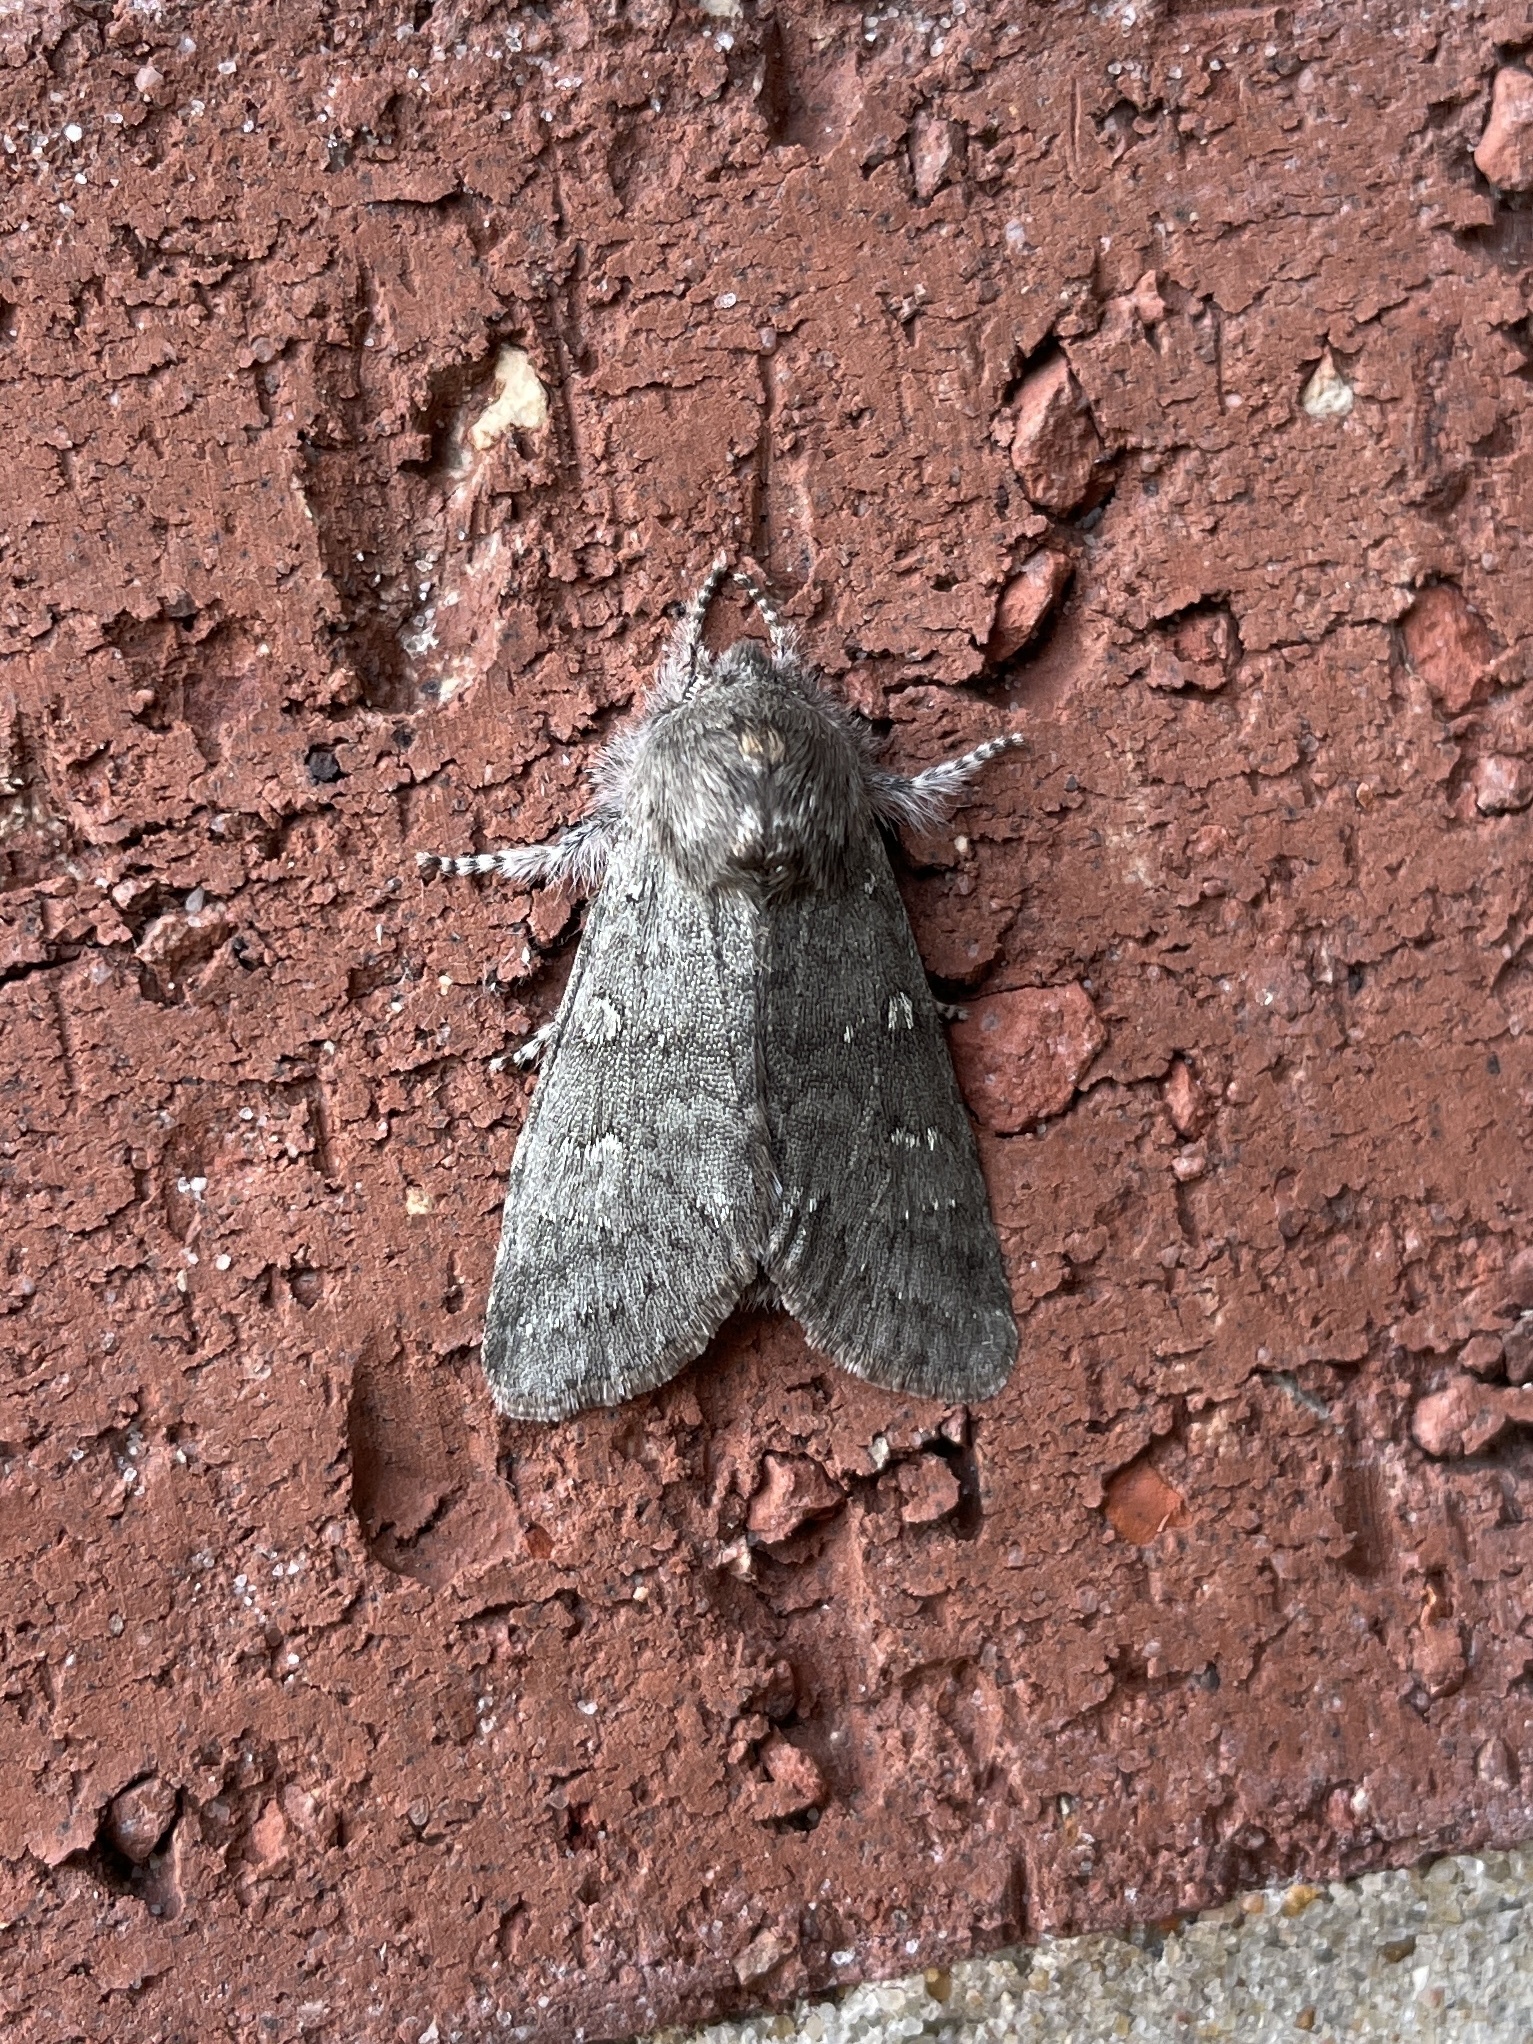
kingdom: Animalia
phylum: Arthropoda
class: Insecta
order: Lepidoptera
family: Noctuidae
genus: Psaphida
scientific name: Psaphida rolandi
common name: Roland's sallow
